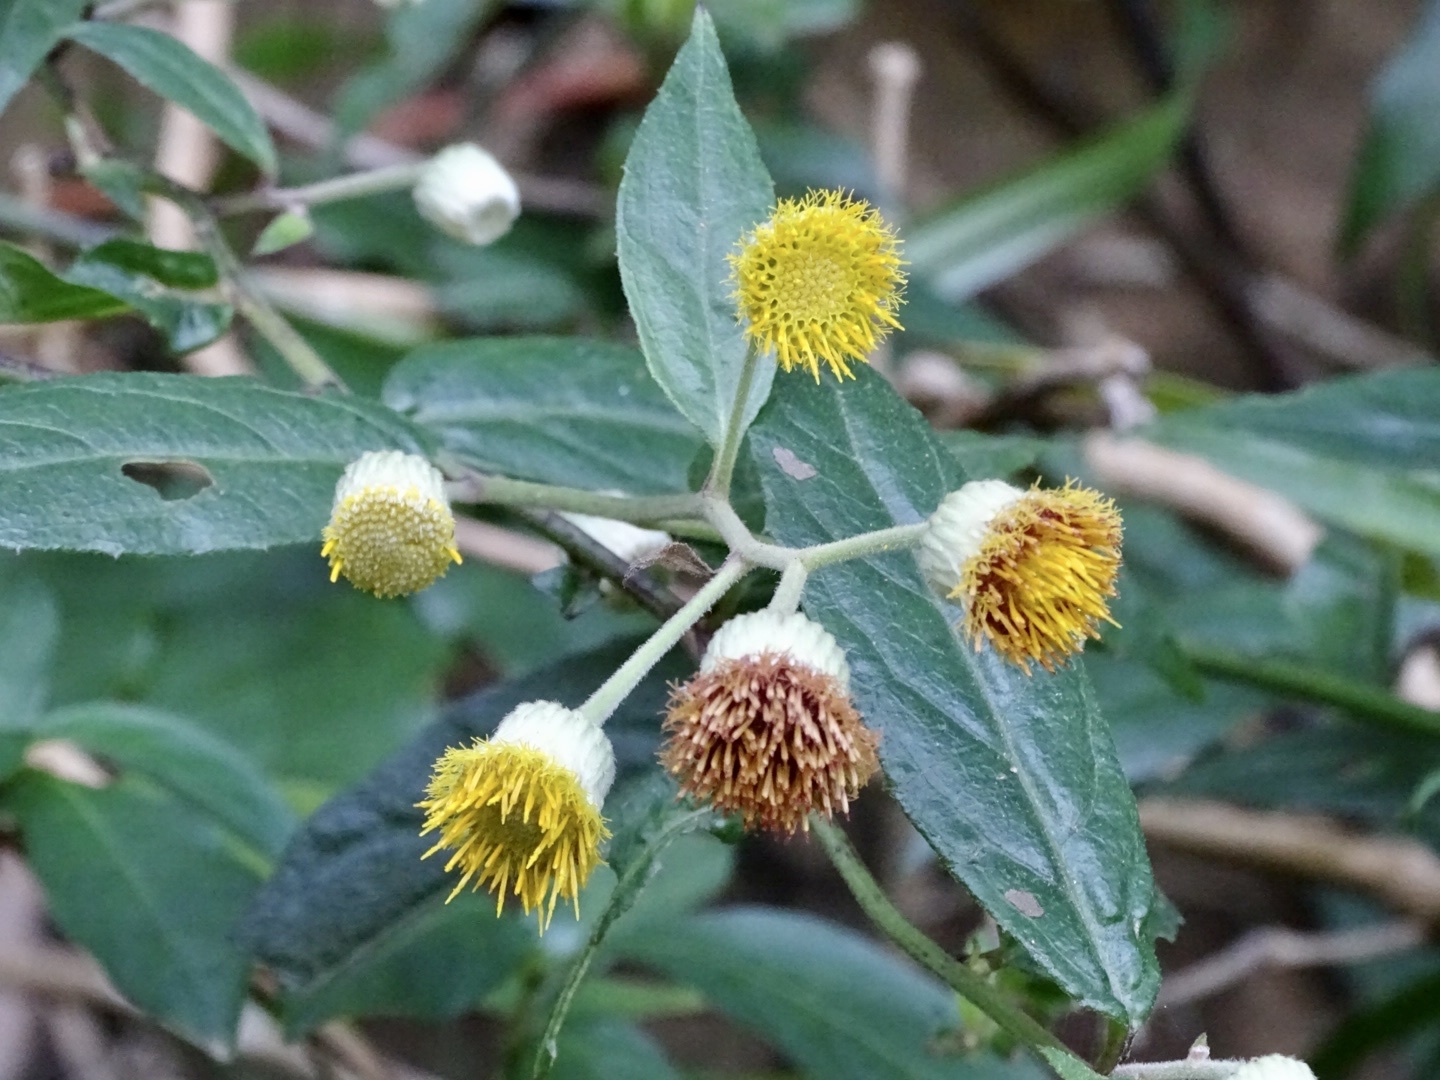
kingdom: Plantae
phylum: Tracheophyta
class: Magnoliopsida
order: Asterales
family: Asteraceae
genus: Blumea
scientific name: Blumea megacephala
